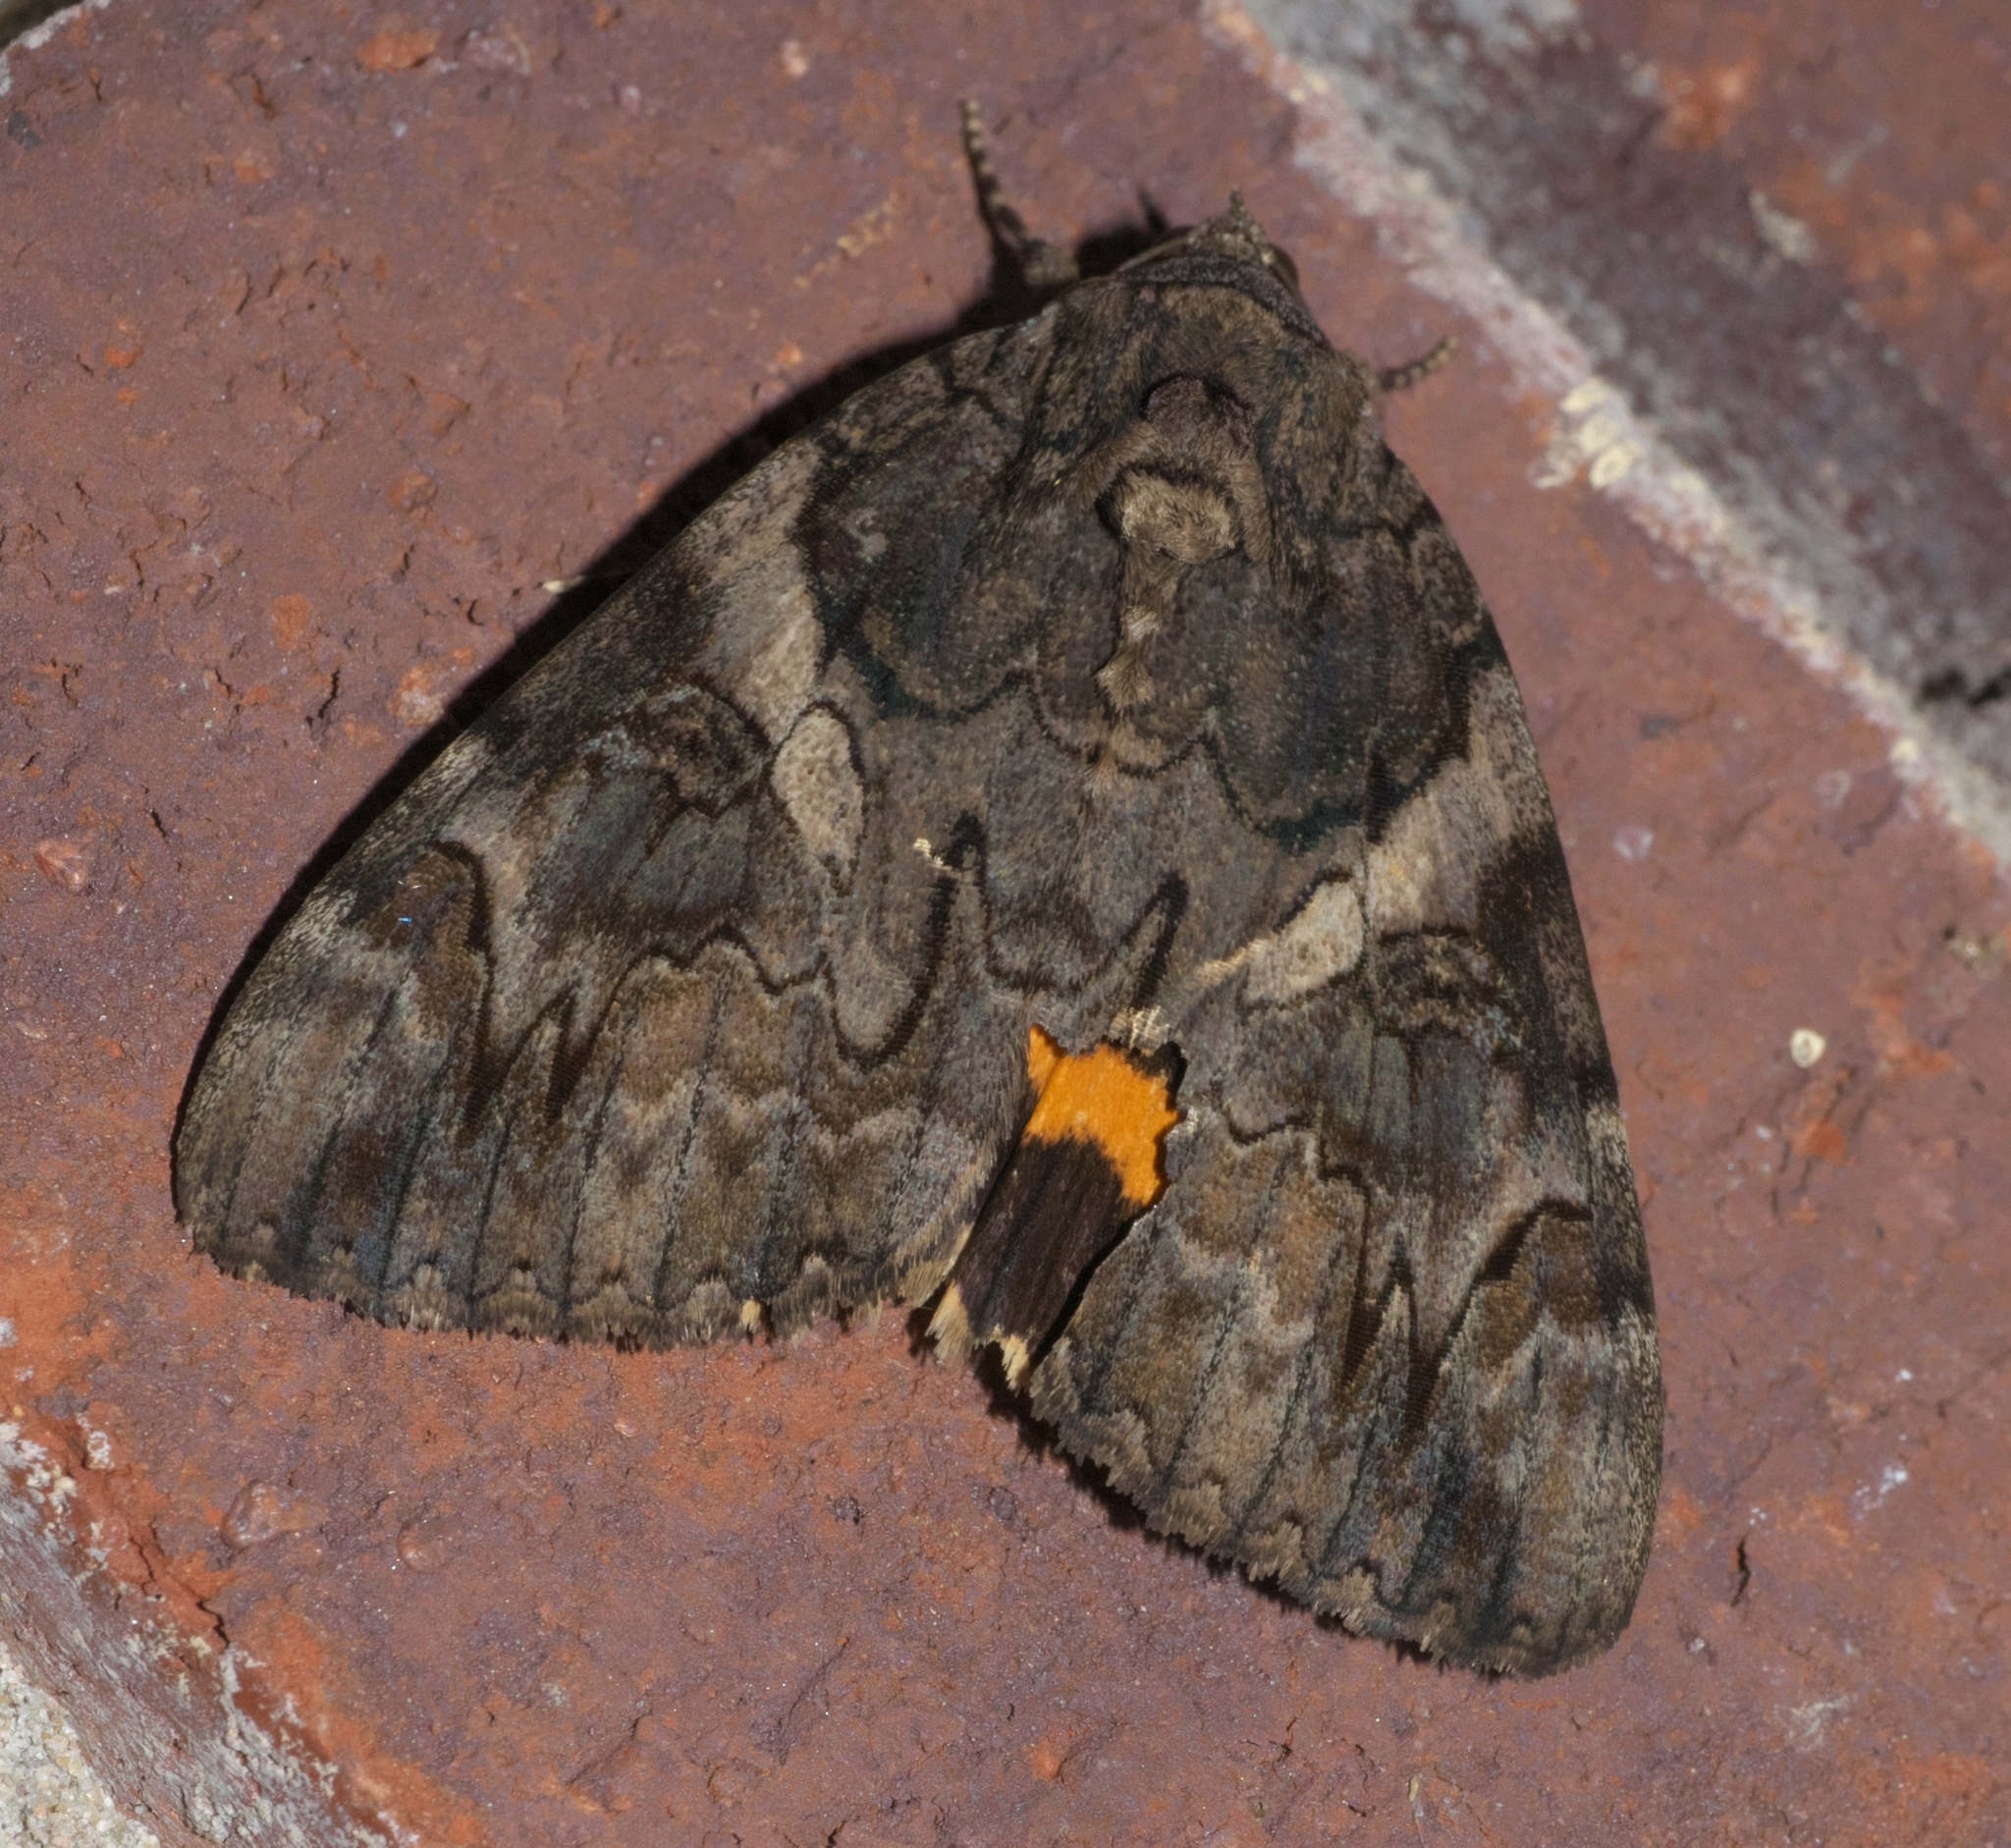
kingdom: Animalia
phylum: Arthropoda
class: Insecta
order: Lepidoptera
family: Erebidae
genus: Catocala
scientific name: Catocala piatrix
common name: The penitent underwing
